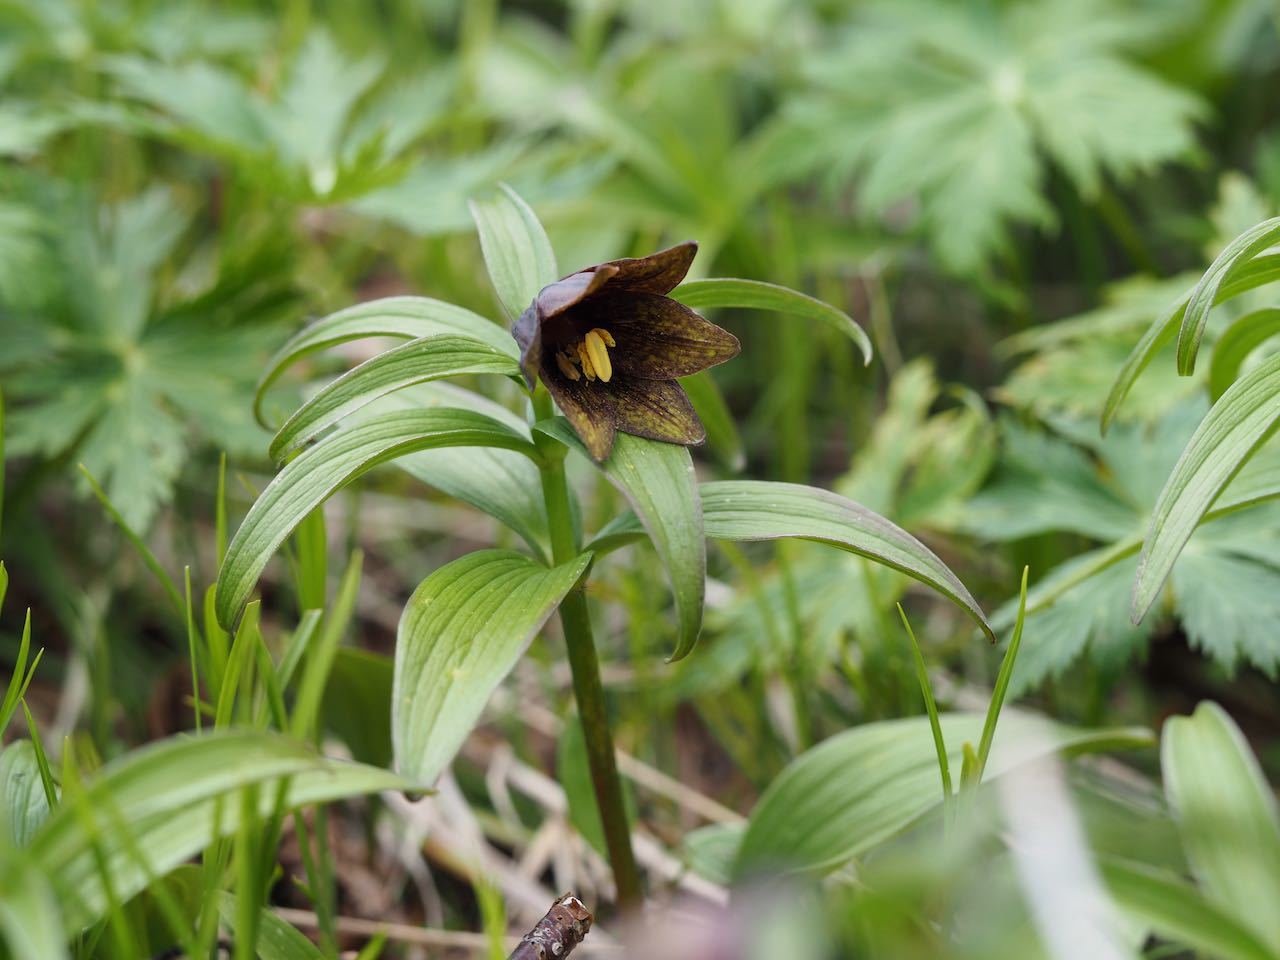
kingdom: Plantae
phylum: Tracheophyta
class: Liliopsida
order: Liliales
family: Liliaceae
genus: Fritillaria
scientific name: Fritillaria camschatcensis
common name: Kamchatka fritillary
